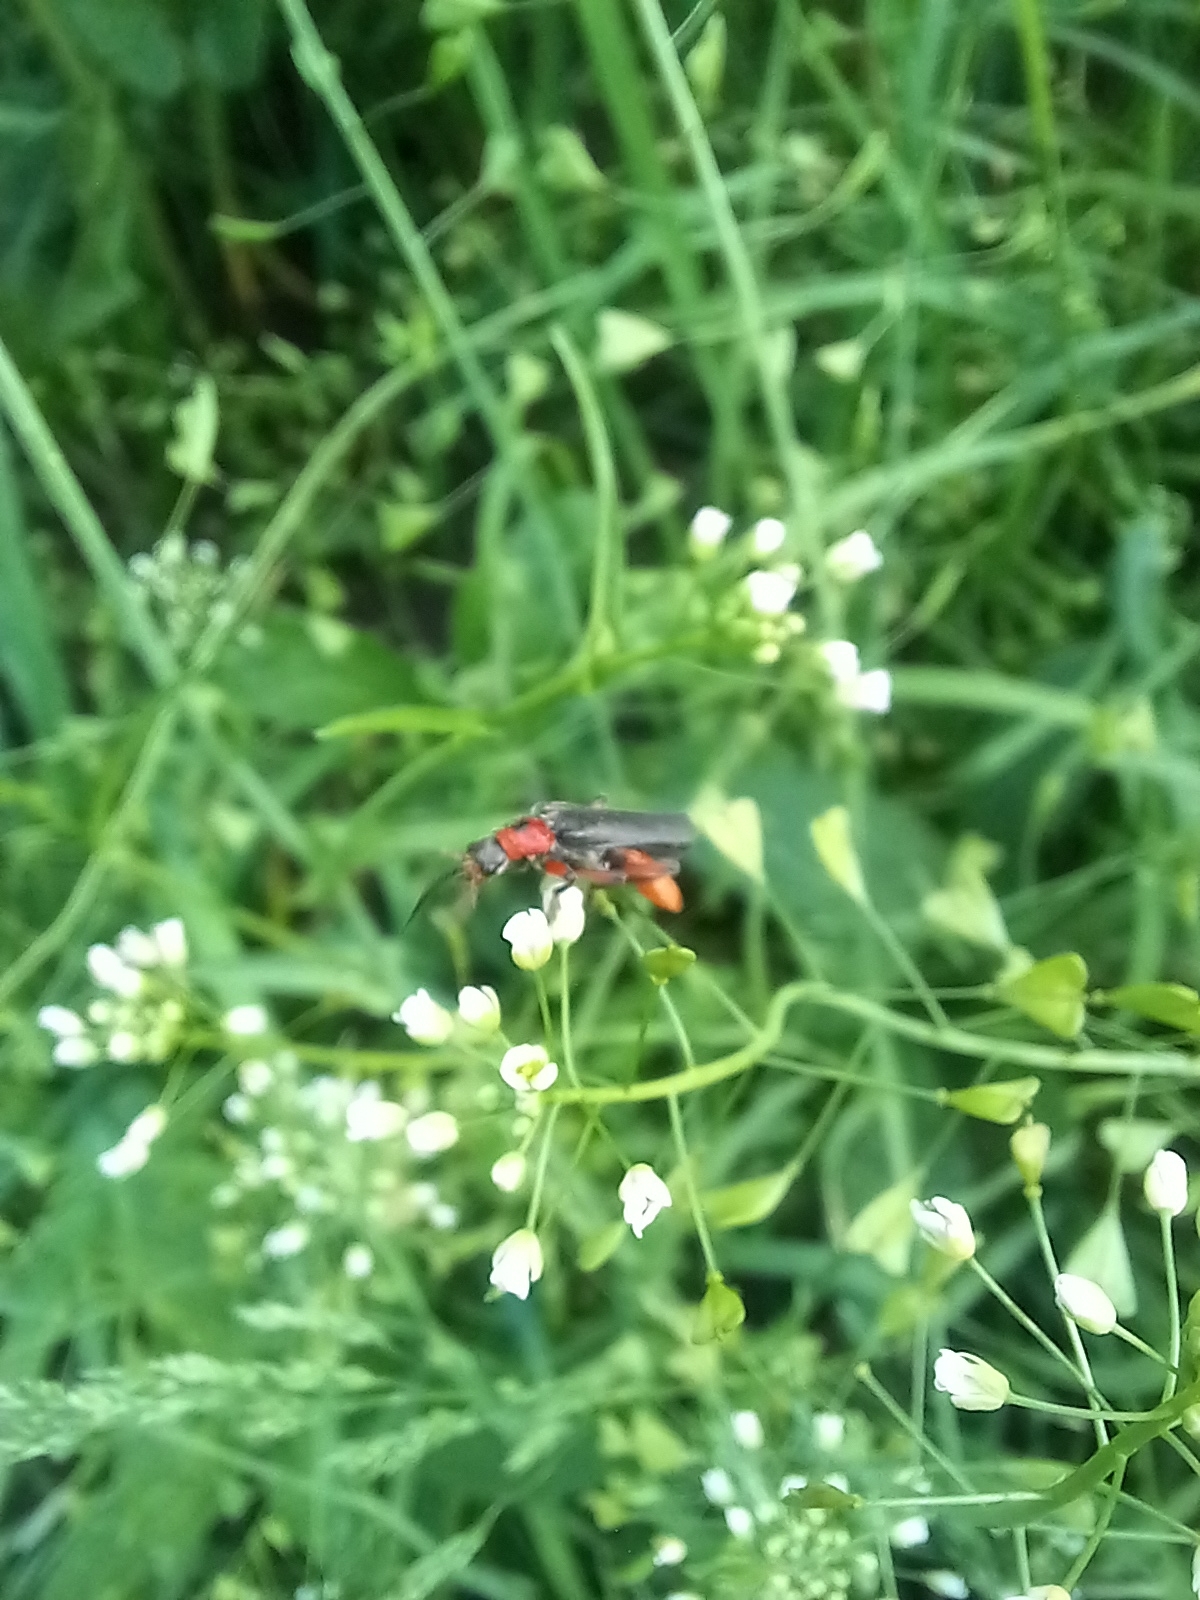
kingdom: Animalia
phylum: Arthropoda
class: Insecta
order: Coleoptera
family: Cantharidae
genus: Cantharis
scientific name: Cantharis rustica
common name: Soldier beetle
